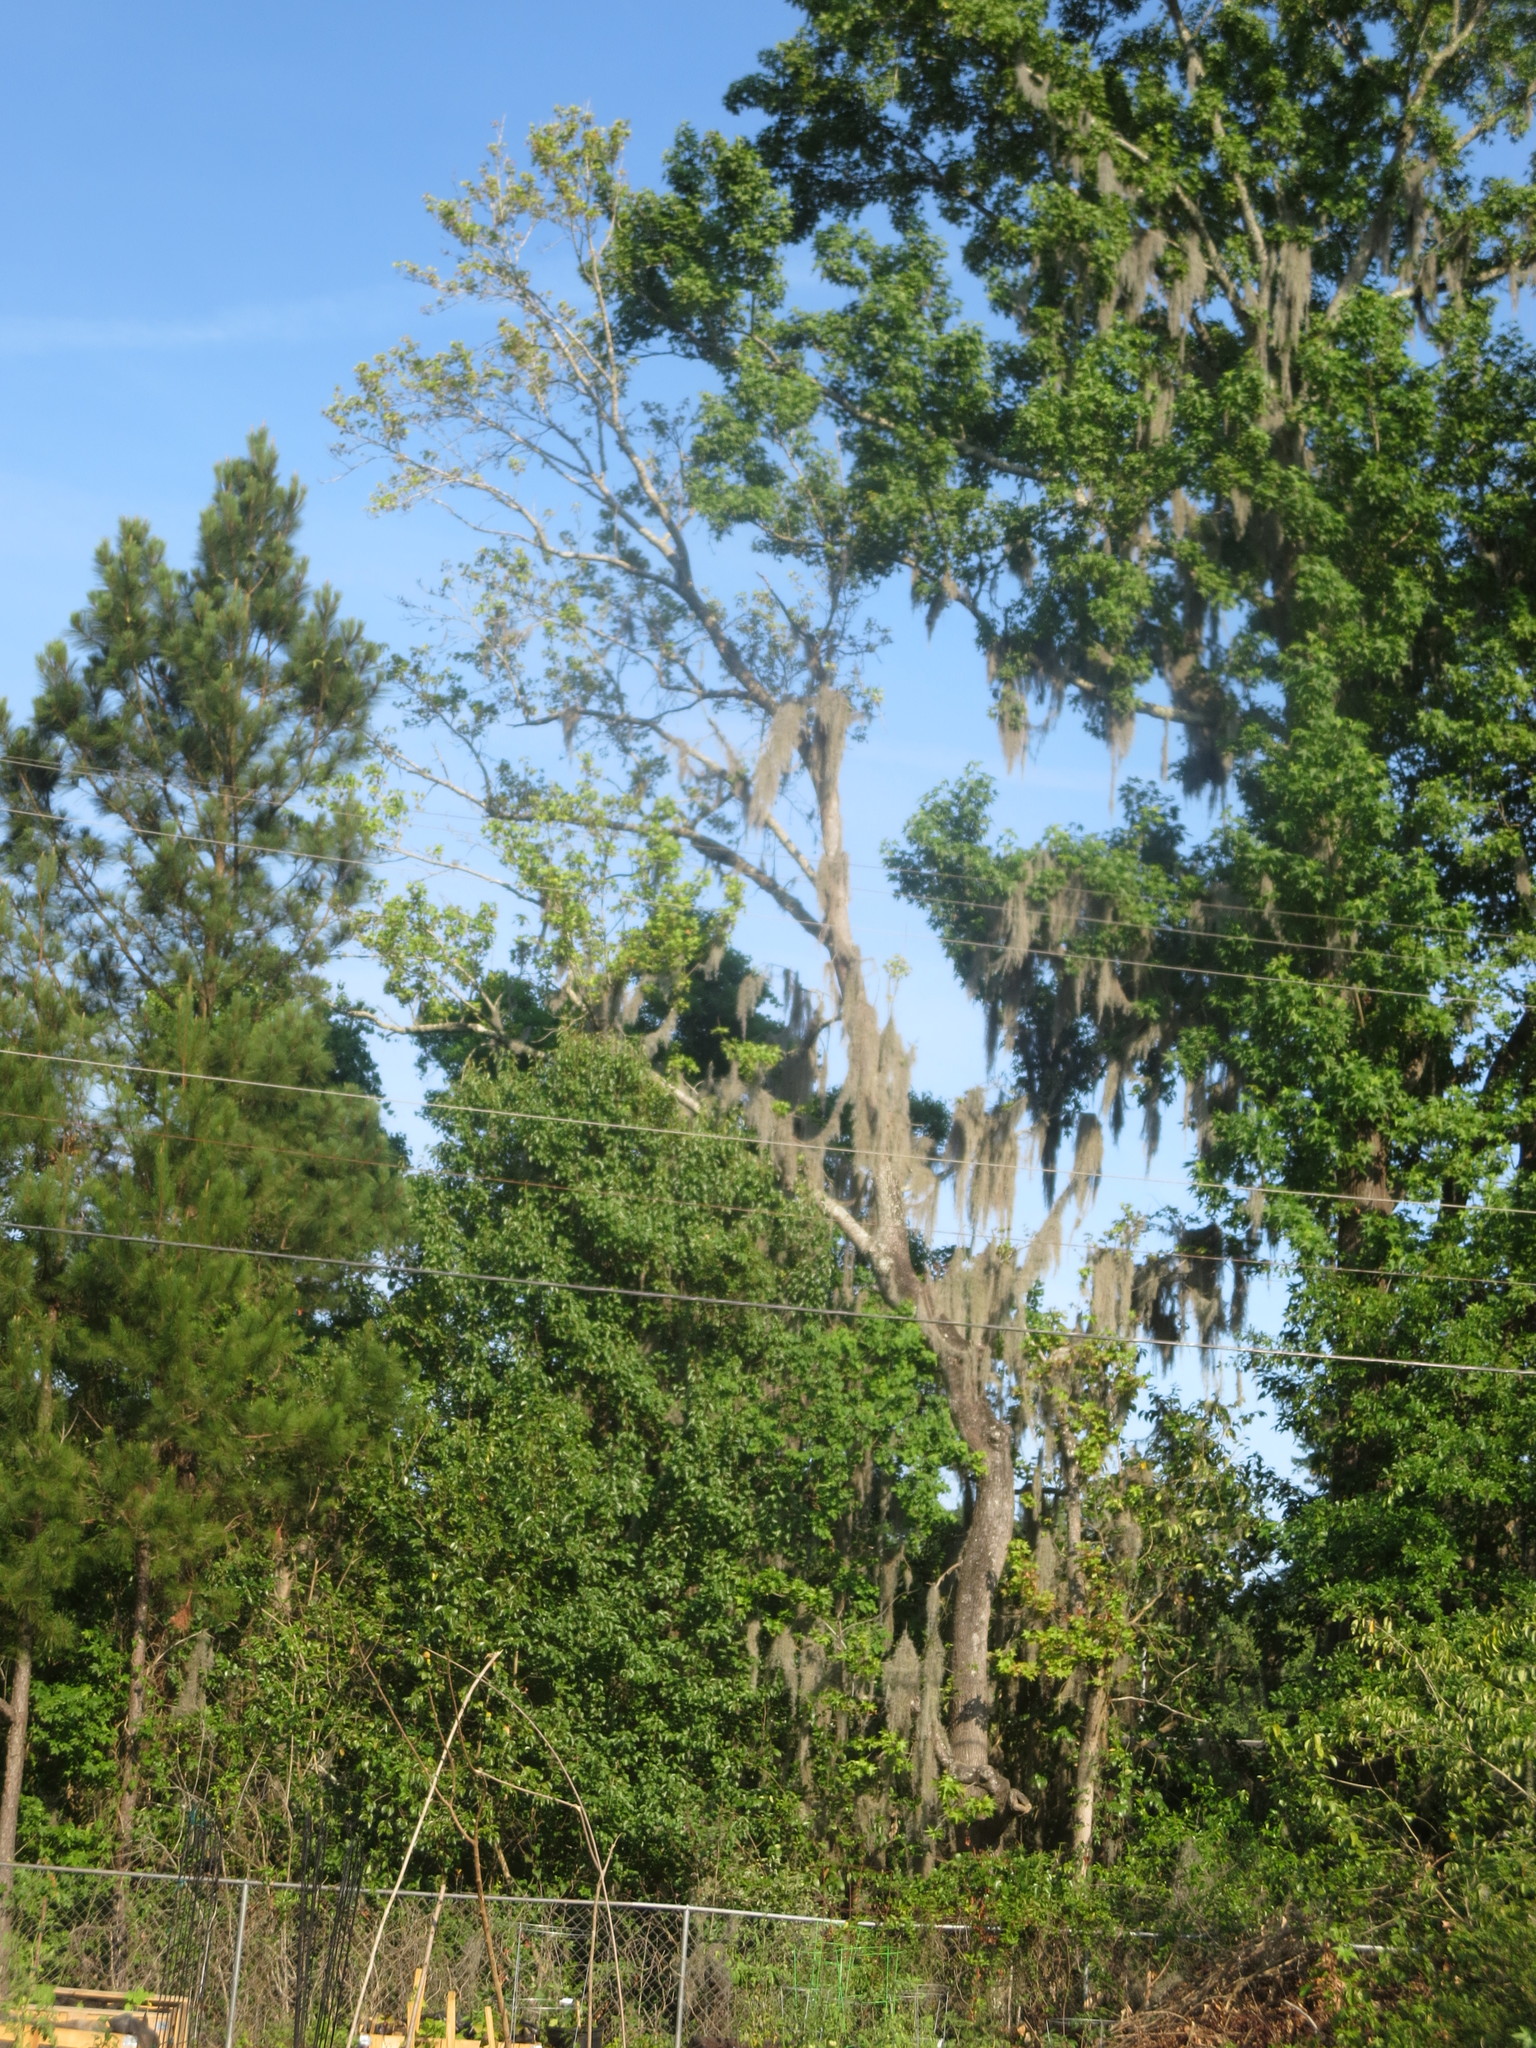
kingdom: Plantae
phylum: Tracheophyta
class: Liliopsida
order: Poales
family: Bromeliaceae
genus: Tillandsia
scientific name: Tillandsia usneoides
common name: Spanish moss
